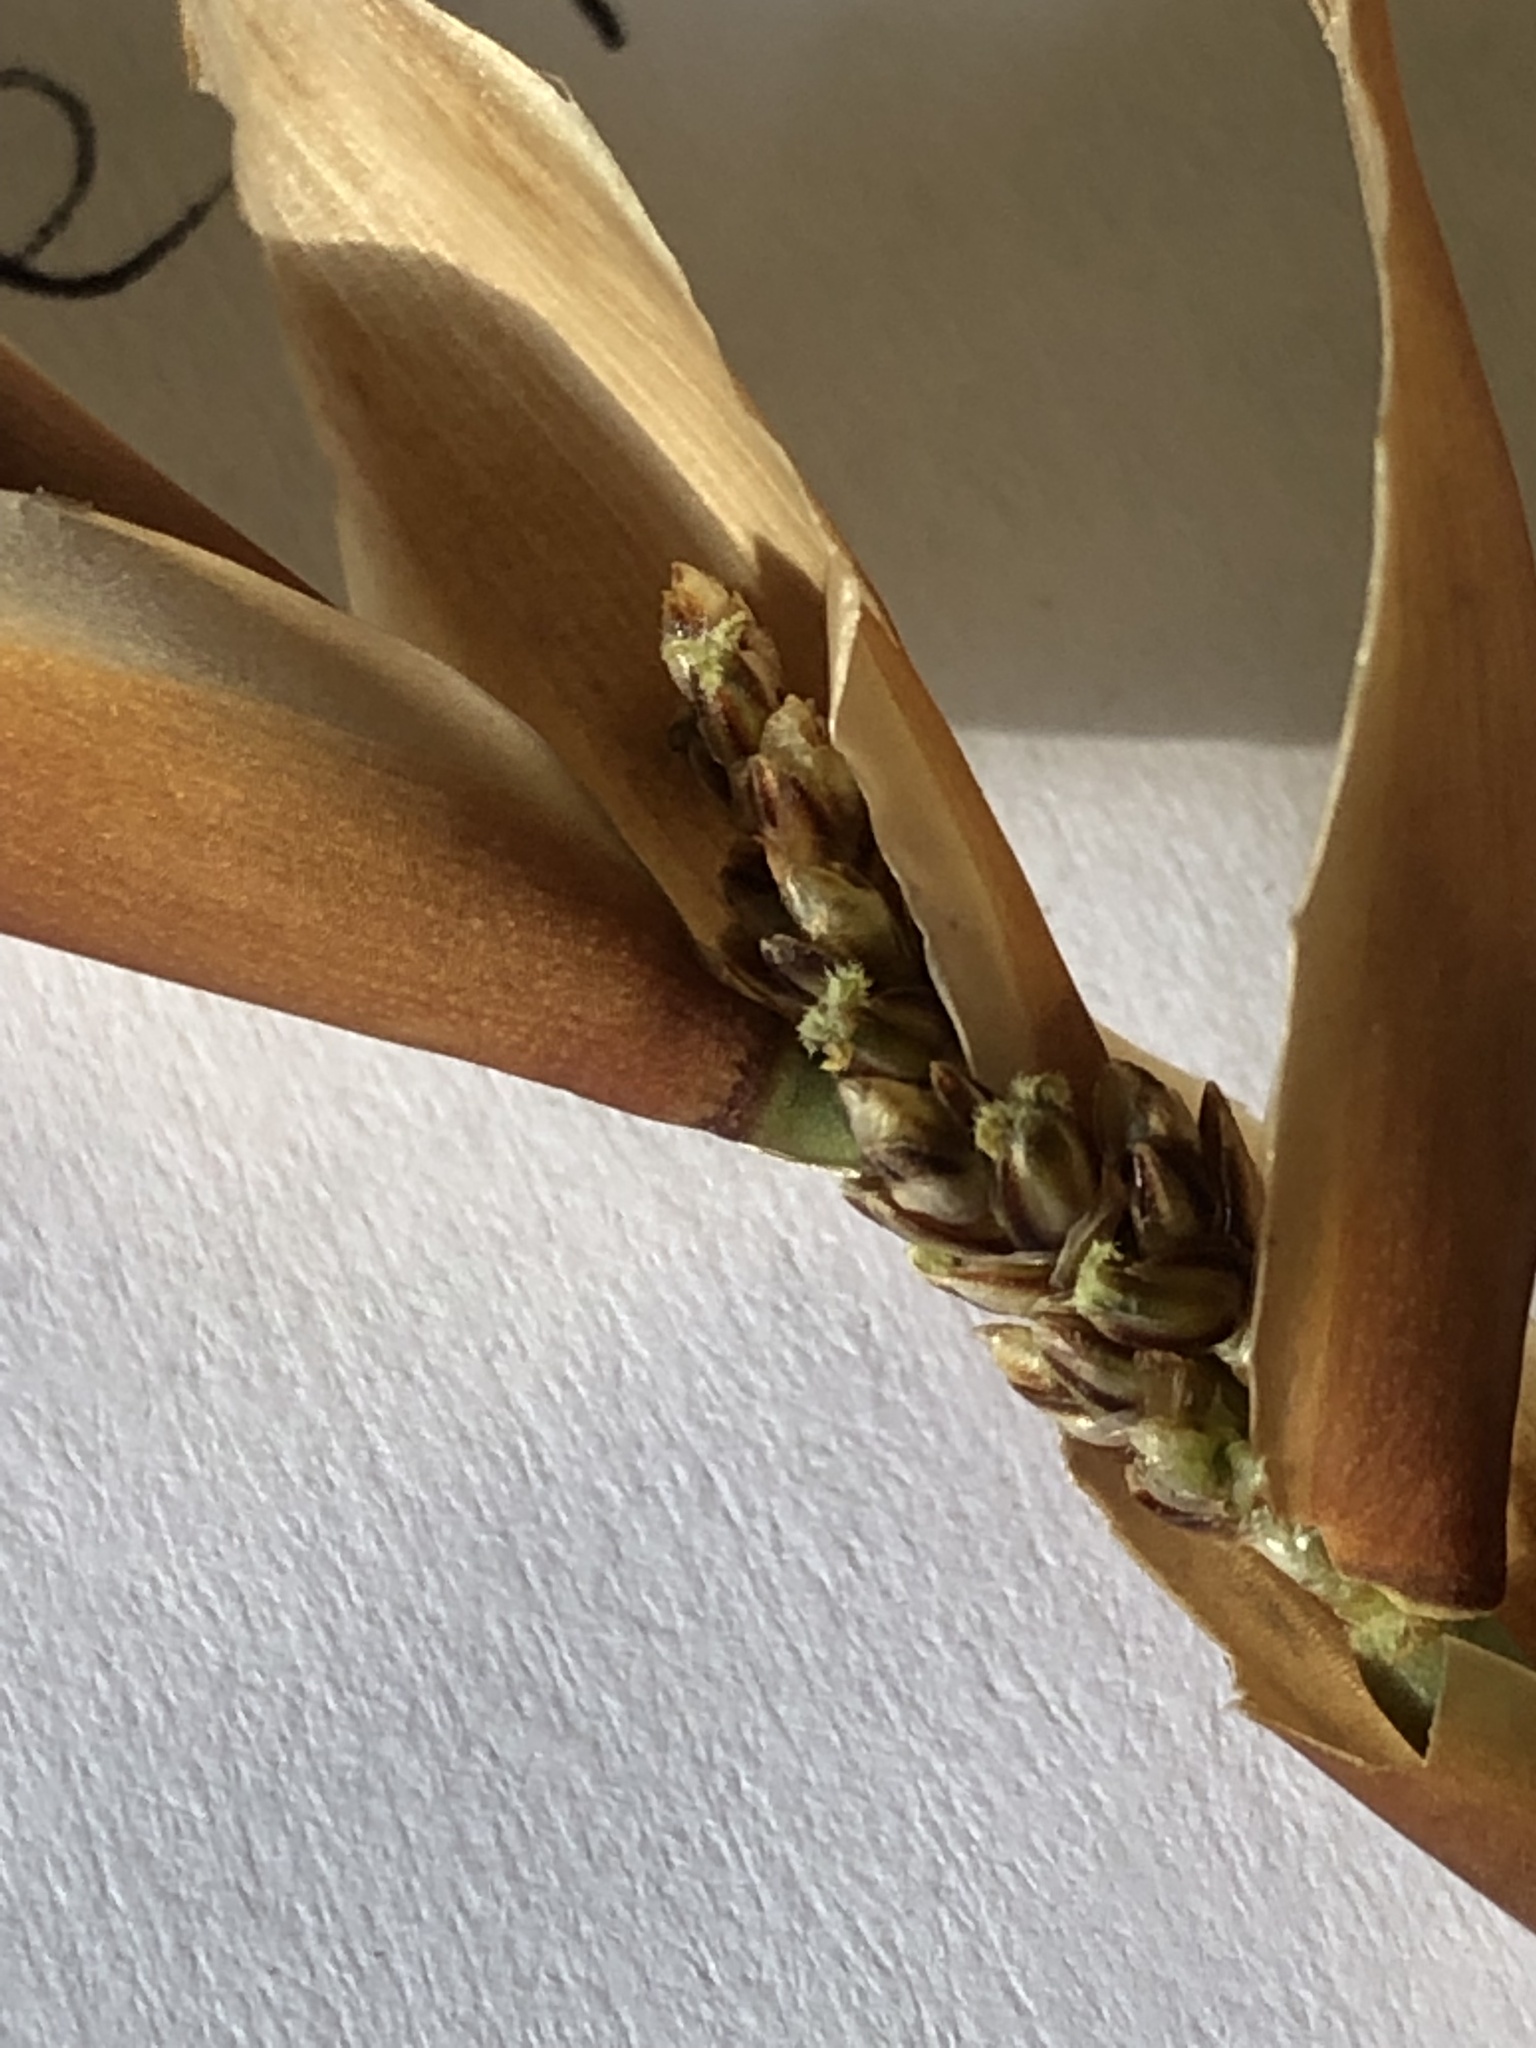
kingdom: Plantae
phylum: Tracheophyta
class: Liliopsida
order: Poales
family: Restionaceae
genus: Elegia
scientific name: Elegia racemosa
